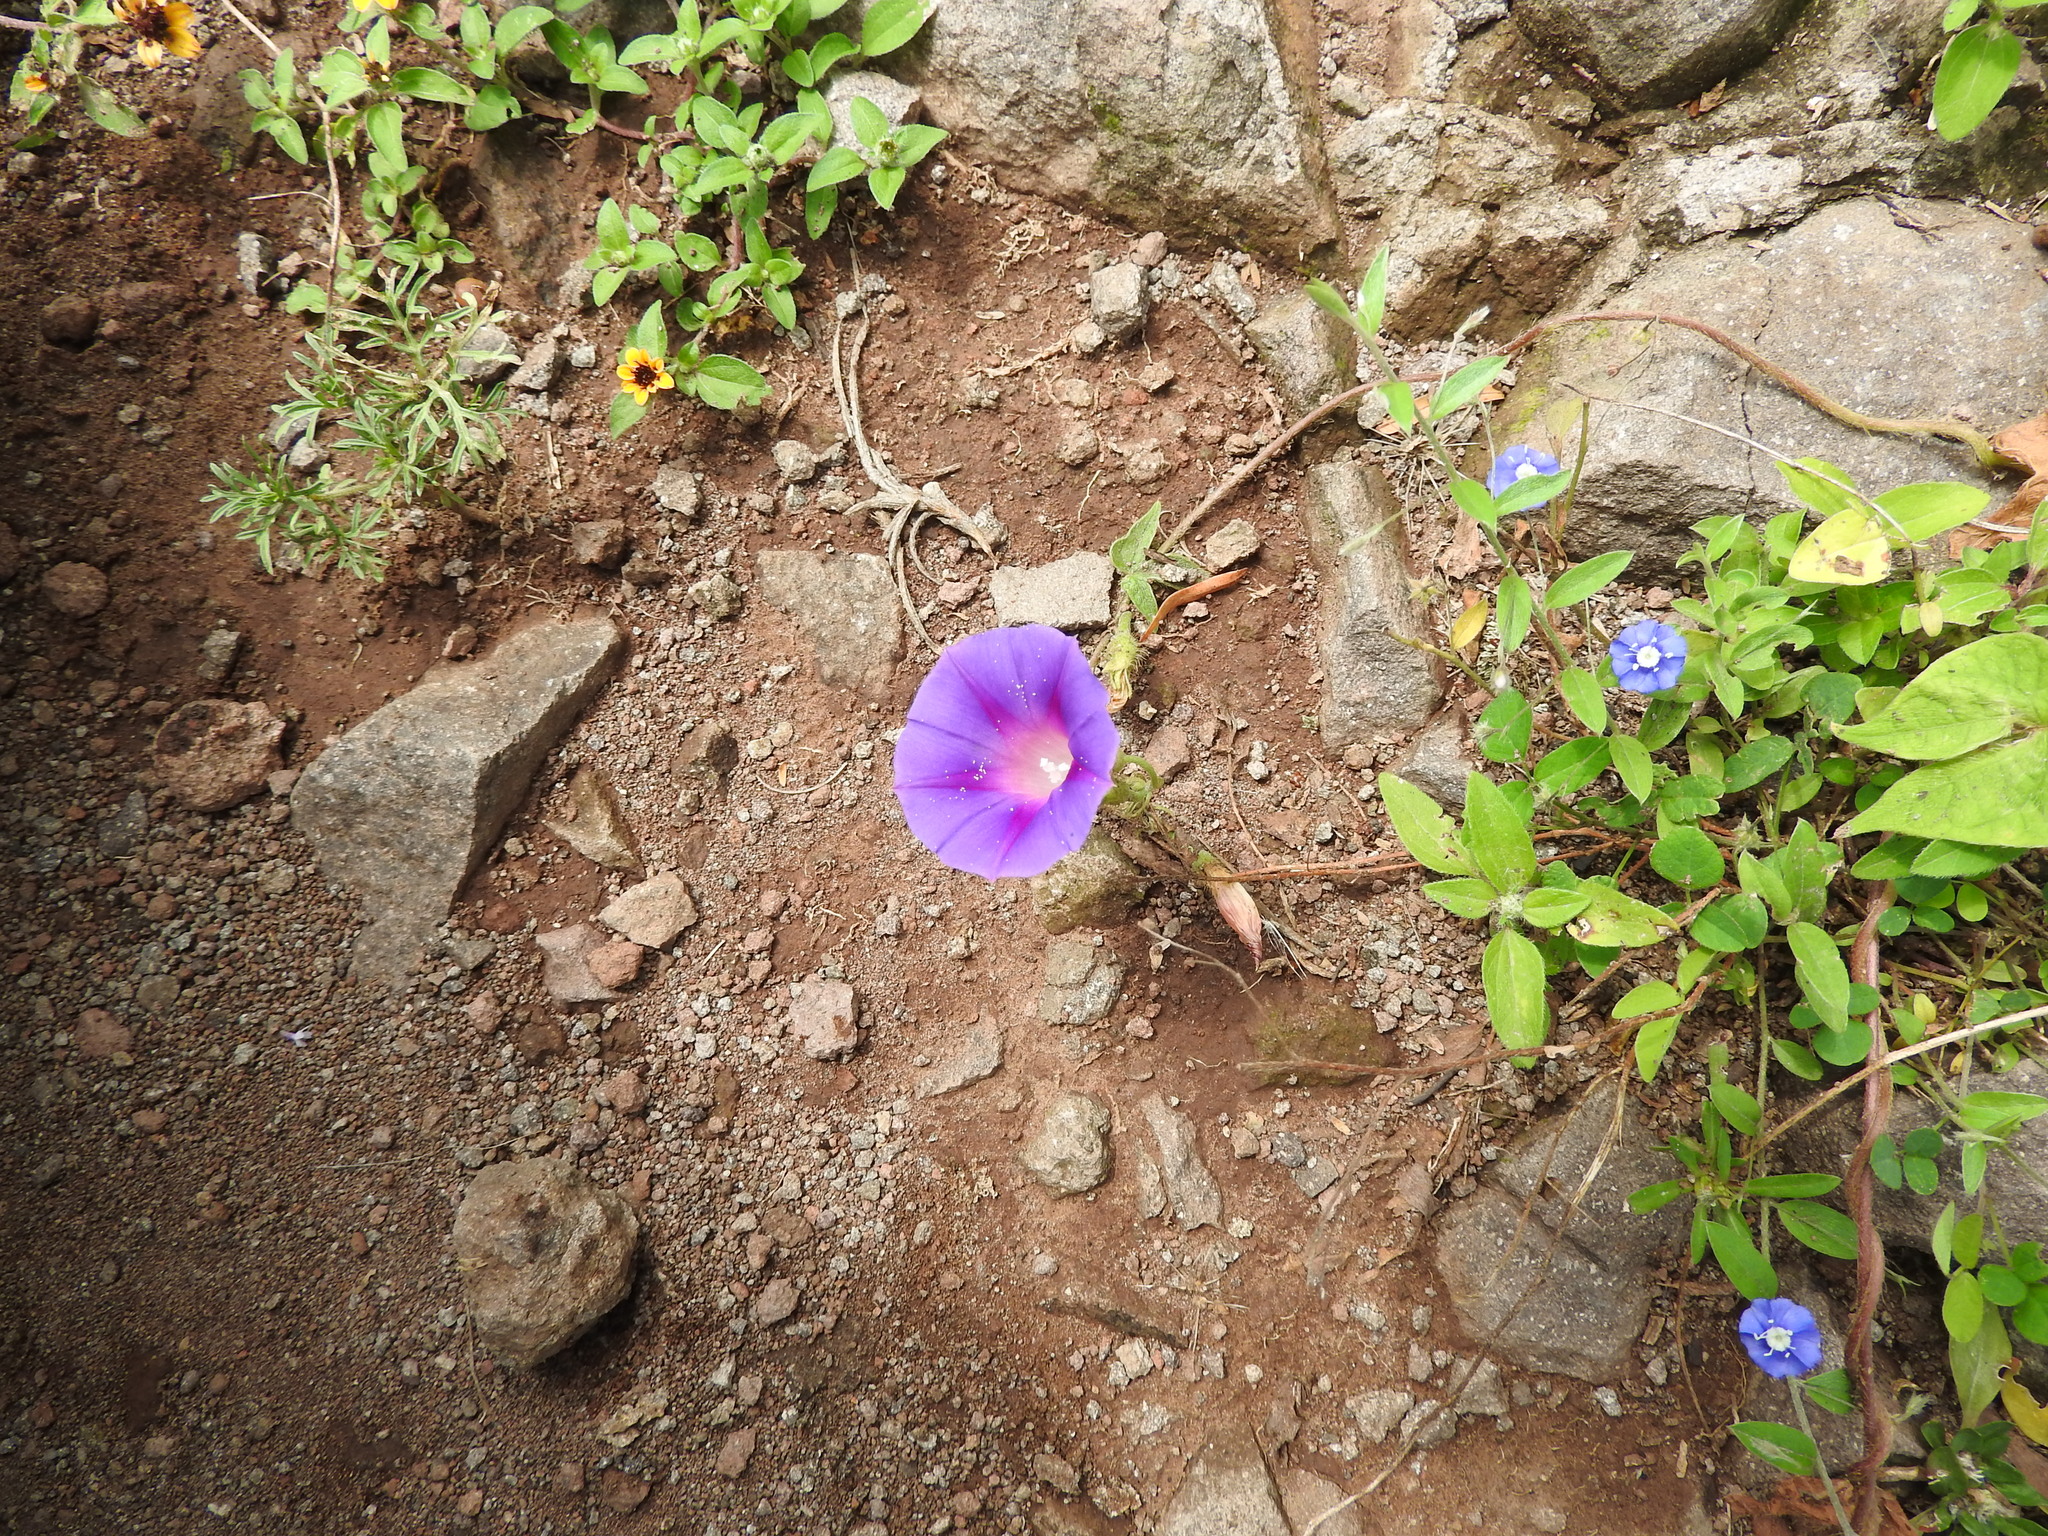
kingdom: Plantae
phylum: Tracheophyta
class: Magnoliopsida
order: Solanales
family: Convolvulaceae
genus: Ipomoea
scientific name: Ipomoea purpurea
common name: Common morning-glory
